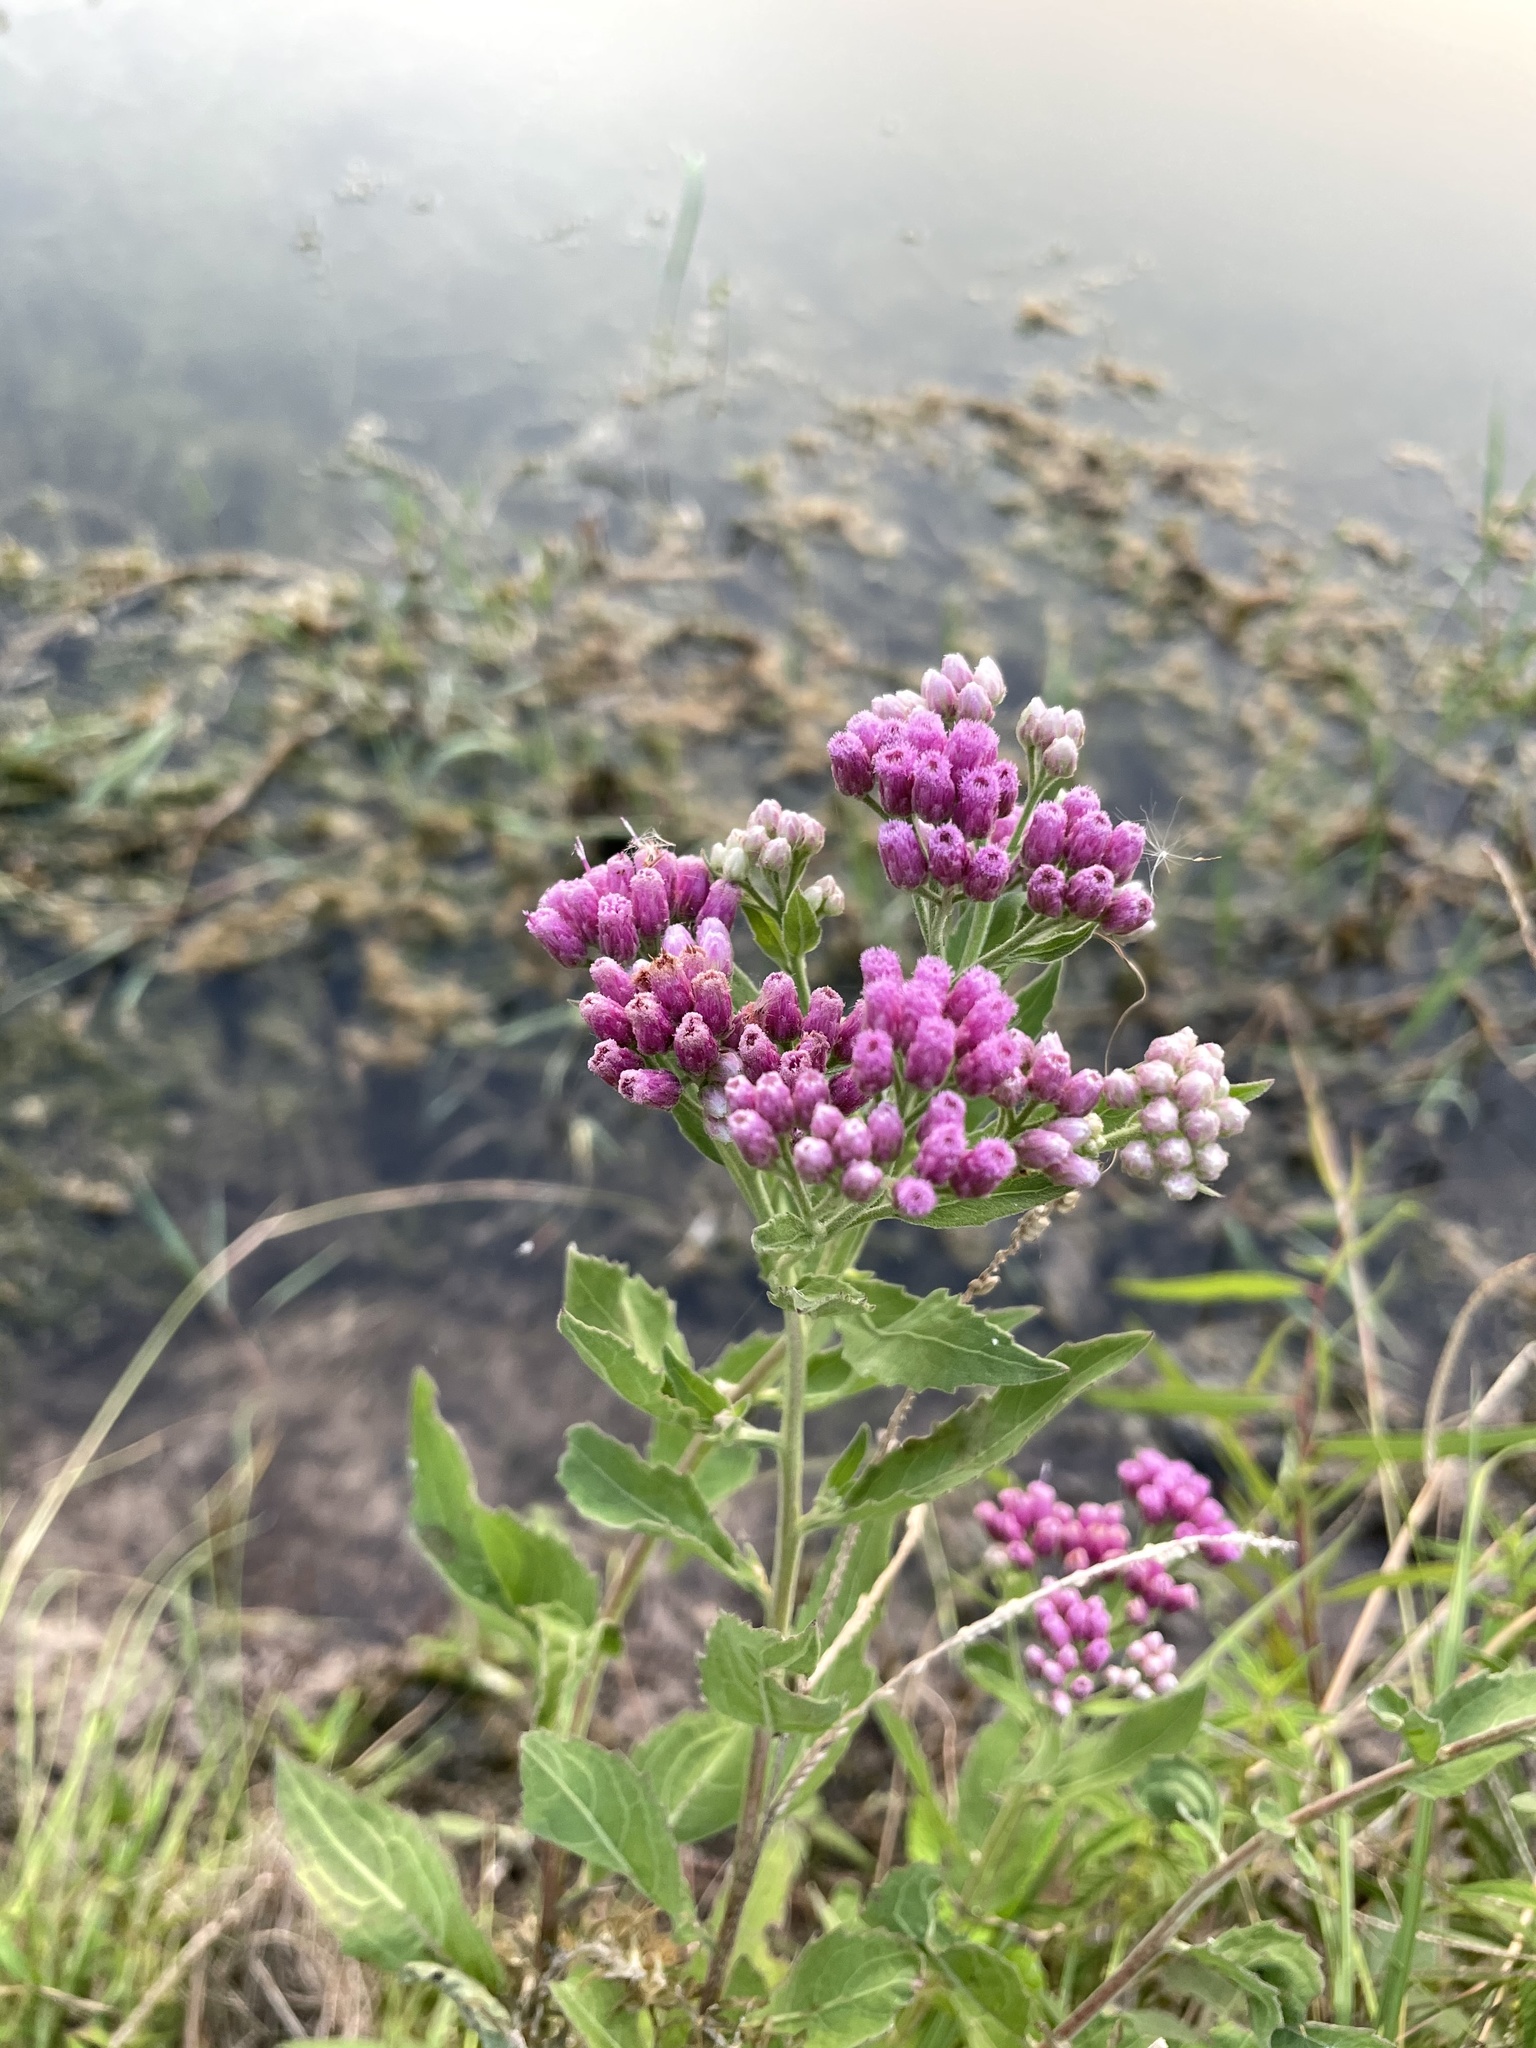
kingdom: Plantae
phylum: Tracheophyta
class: Magnoliopsida
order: Asterales
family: Asteraceae
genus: Pluchea
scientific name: Pluchea odorata
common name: Saltmarsh fleabane
